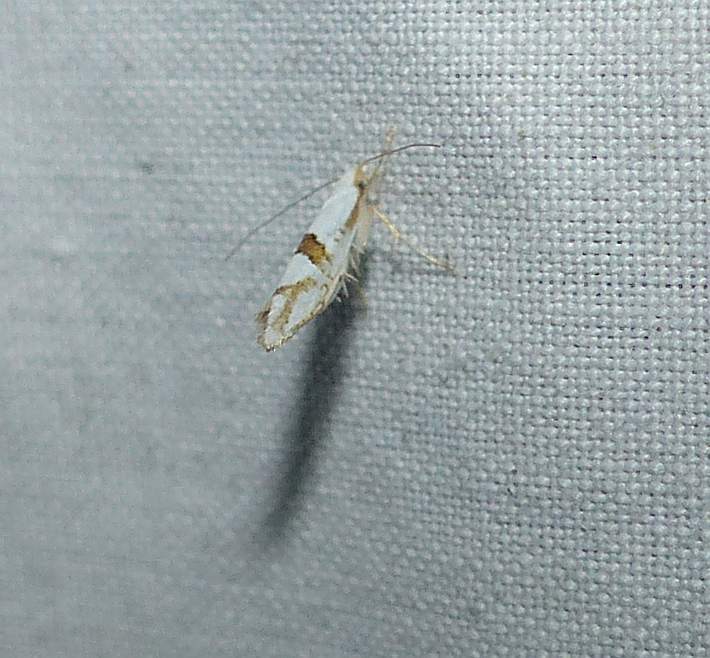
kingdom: Animalia
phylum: Arthropoda
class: Insecta
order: Lepidoptera
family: Argyresthiidae
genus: Argyresthia
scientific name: Argyresthia oreasella
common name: Cherry shoot borer moth
